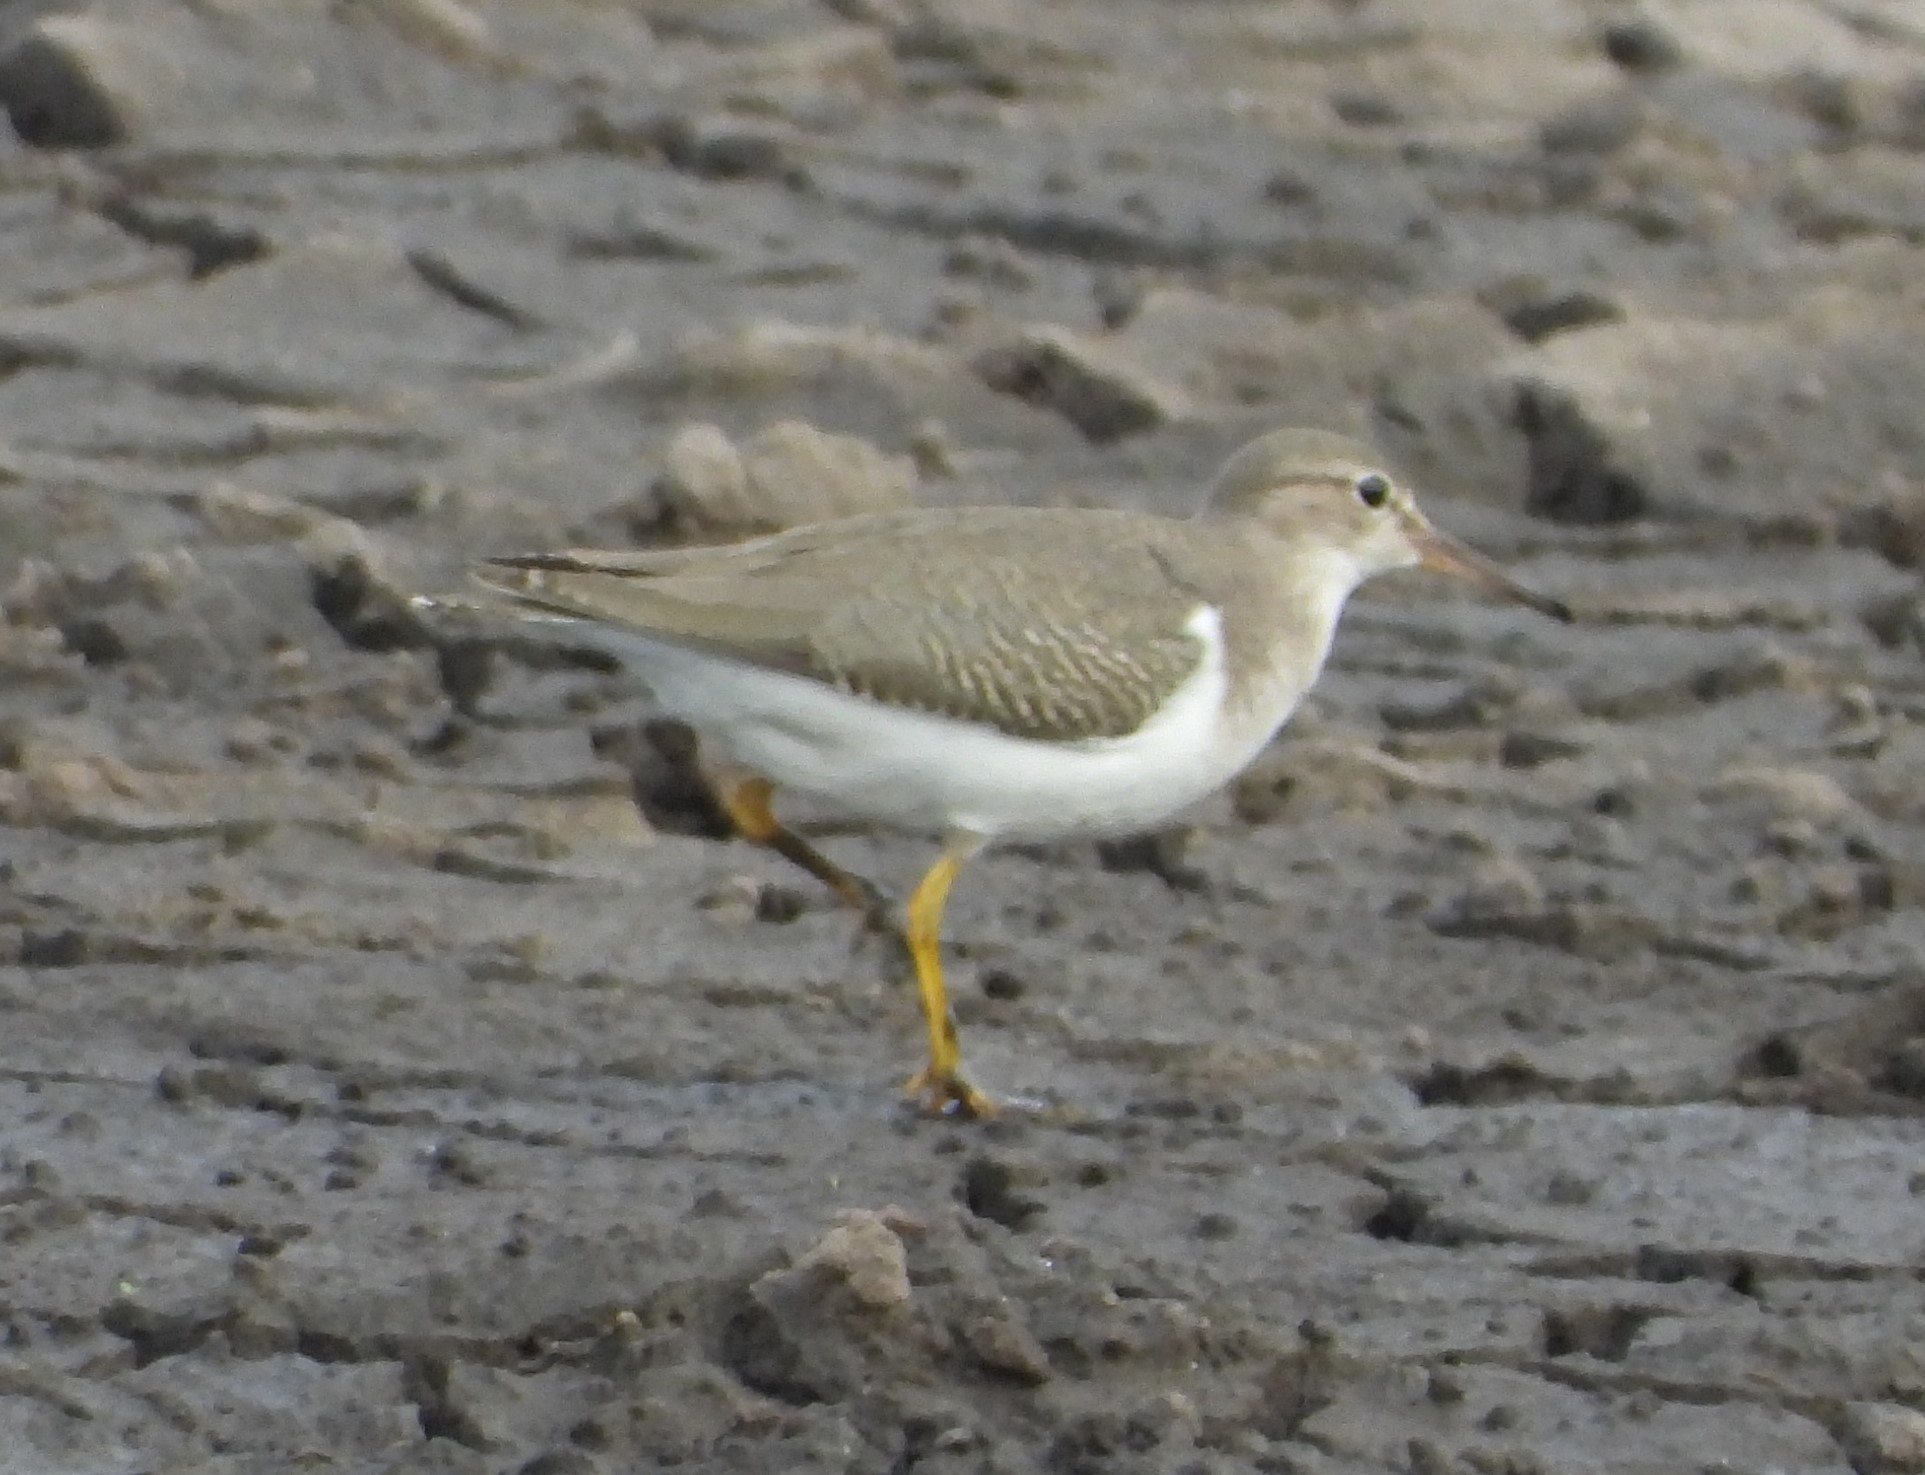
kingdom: Animalia
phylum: Chordata
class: Aves
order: Charadriiformes
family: Scolopacidae
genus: Actitis
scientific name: Actitis macularius
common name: Spotted sandpiper
